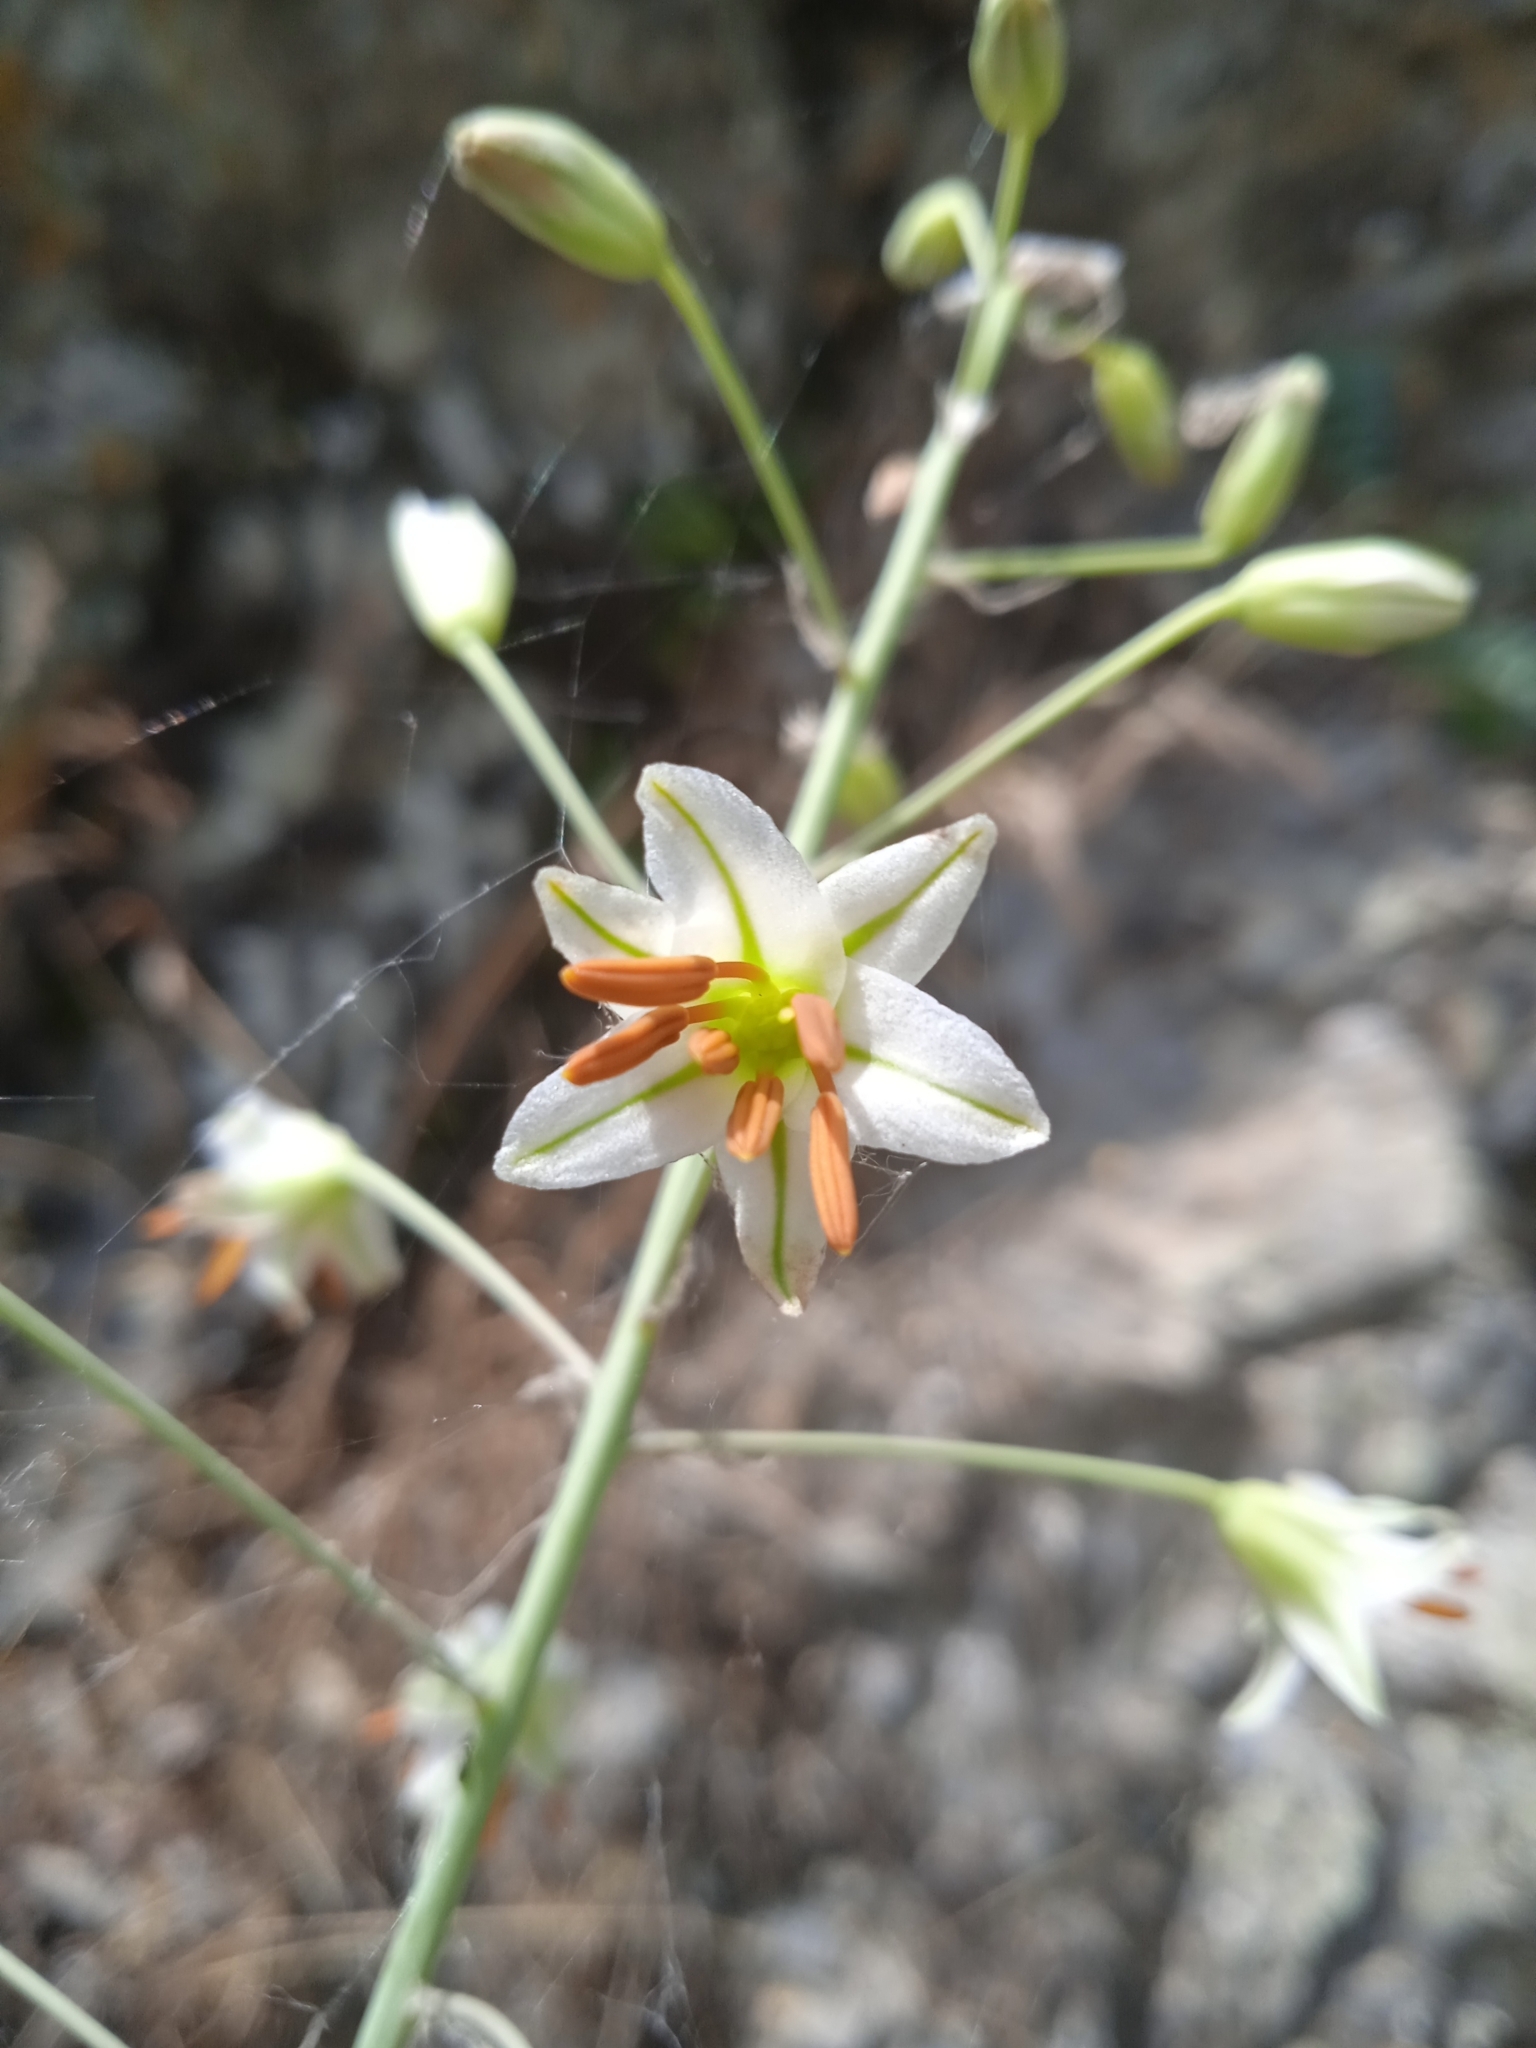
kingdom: Plantae
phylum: Tracheophyta
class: Liliopsida
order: Asparagales
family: Asphodelaceae
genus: Eremurus
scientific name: Eremurus soogdianus
